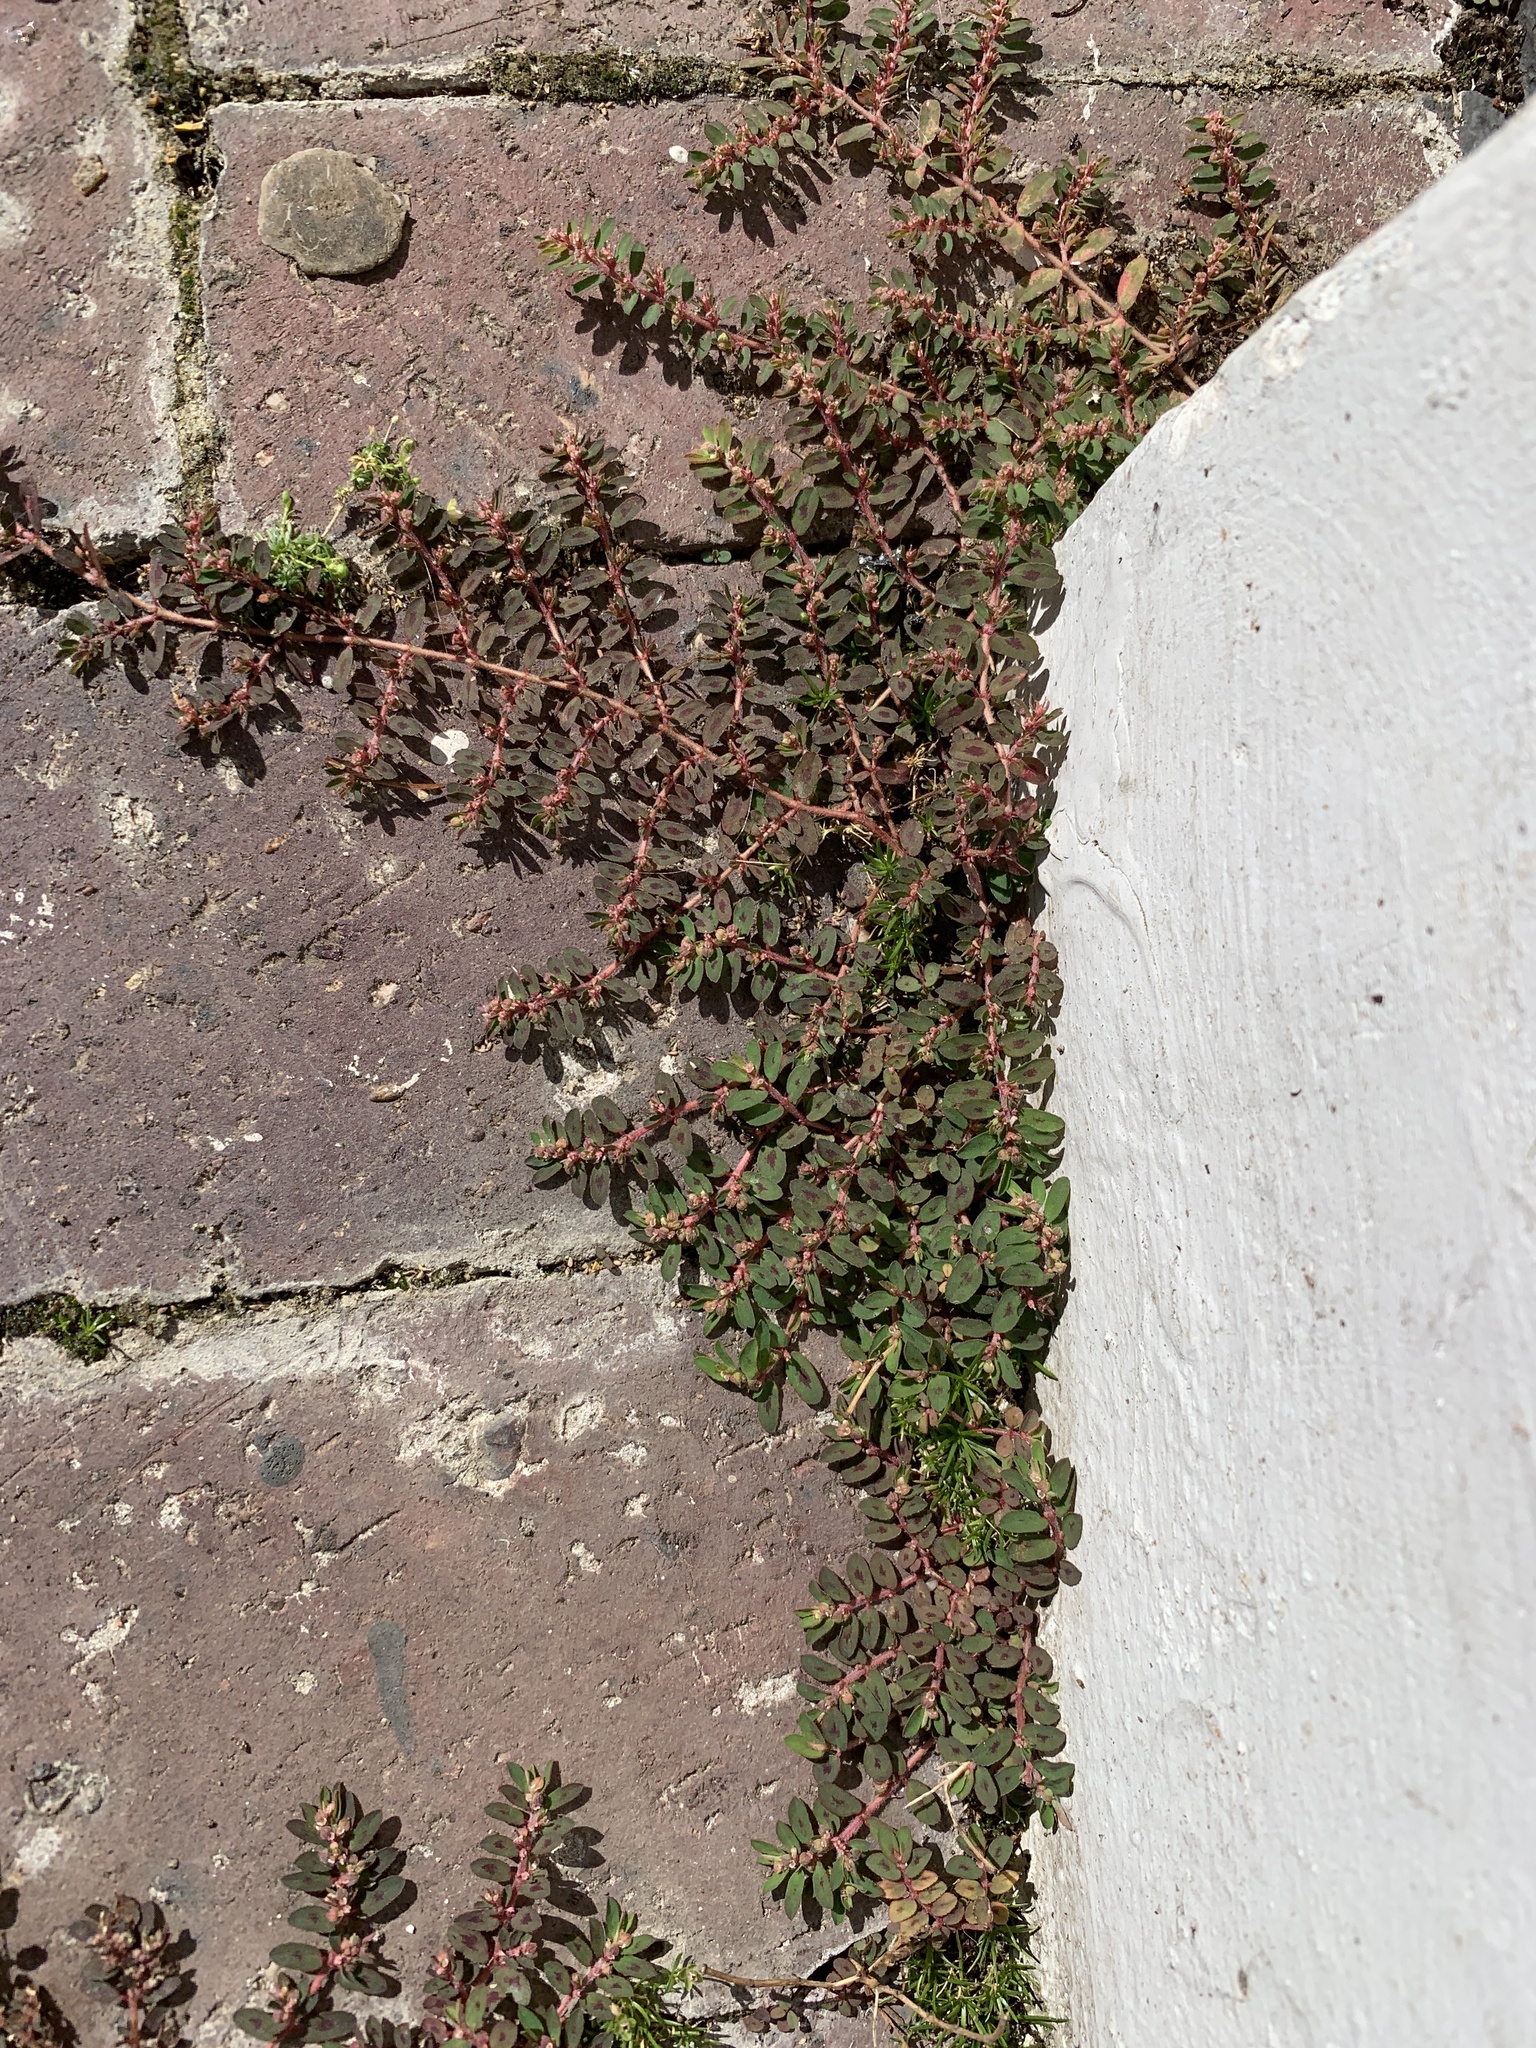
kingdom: Plantae
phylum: Tracheophyta
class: Magnoliopsida
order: Malpighiales
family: Euphorbiaceae
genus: Euphorbia
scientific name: Euphorbia maculata
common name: Spotted spurge
